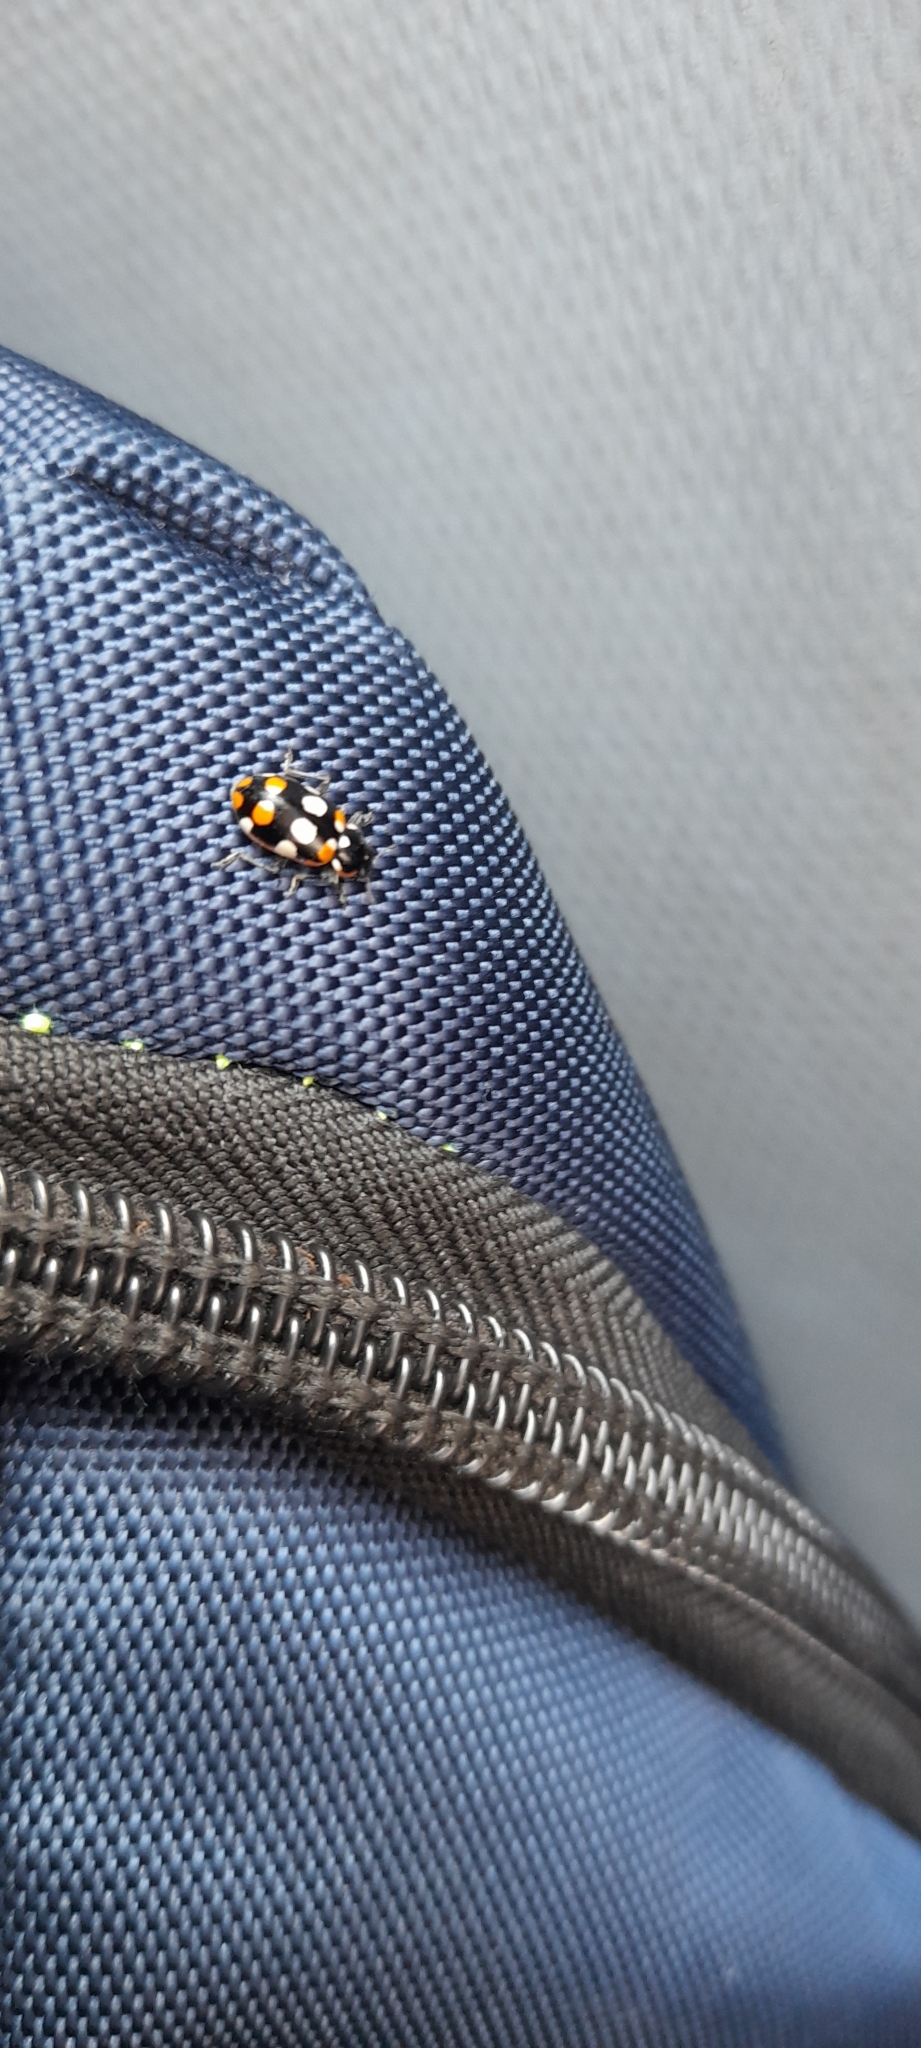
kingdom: Animalia
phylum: Arthropoda
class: Insecta
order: Coleoptera
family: Coccinellidae
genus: Eriopis
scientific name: Eriopis connexa
